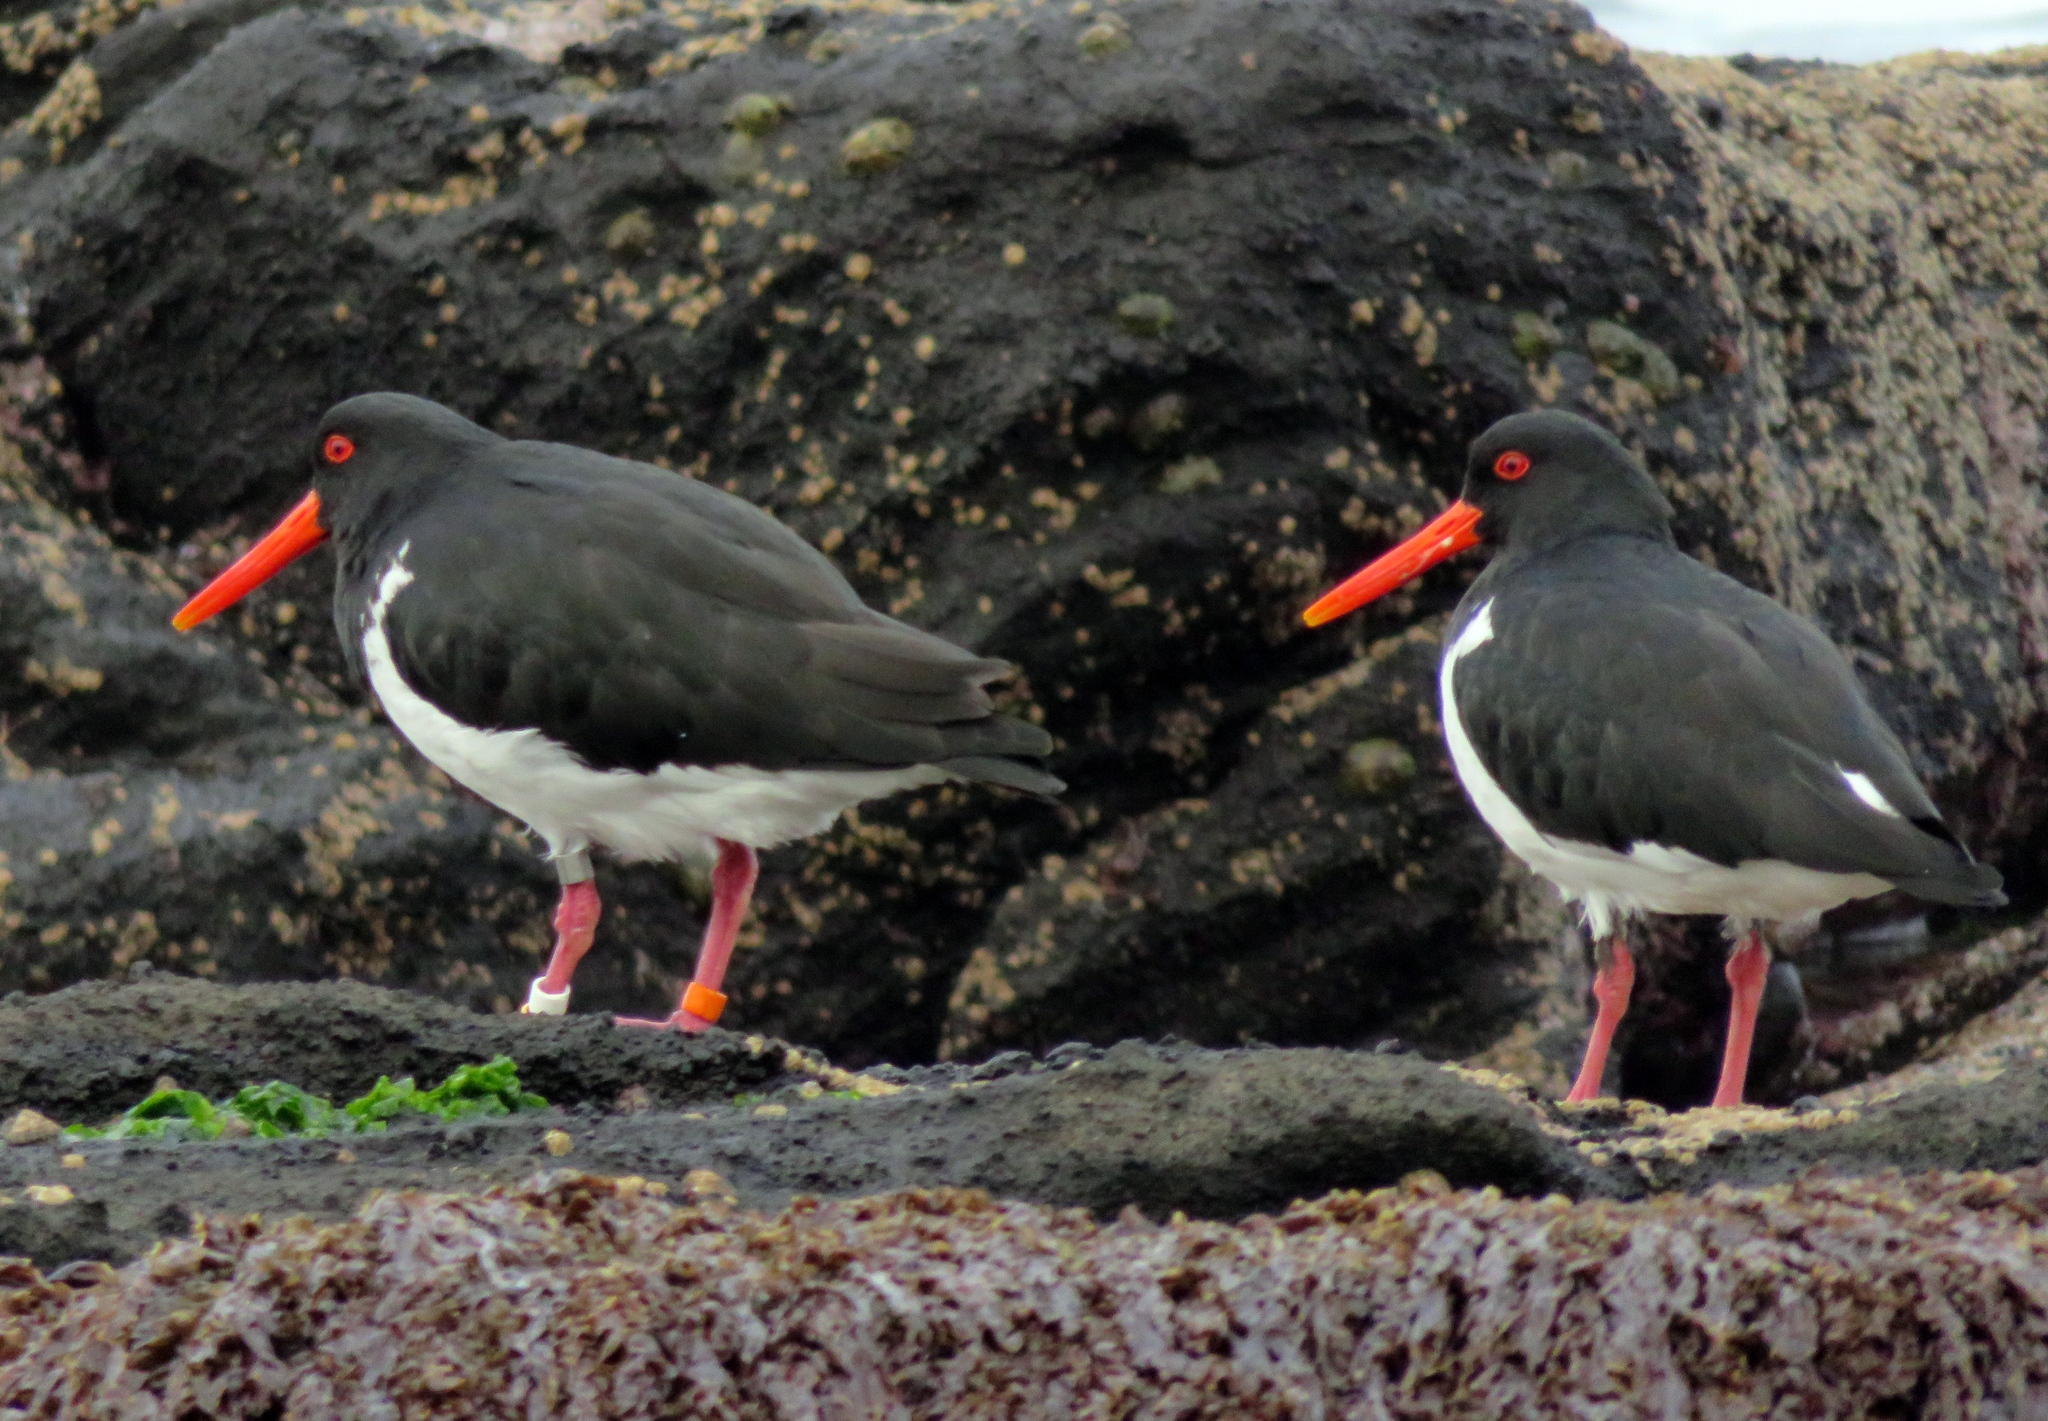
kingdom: Animalia
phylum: Chordata
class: Aves
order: Charadriiformes
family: Haematopodidae
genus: Haematopus
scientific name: Haematopus chathamensis
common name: Chatham oystercatcher
